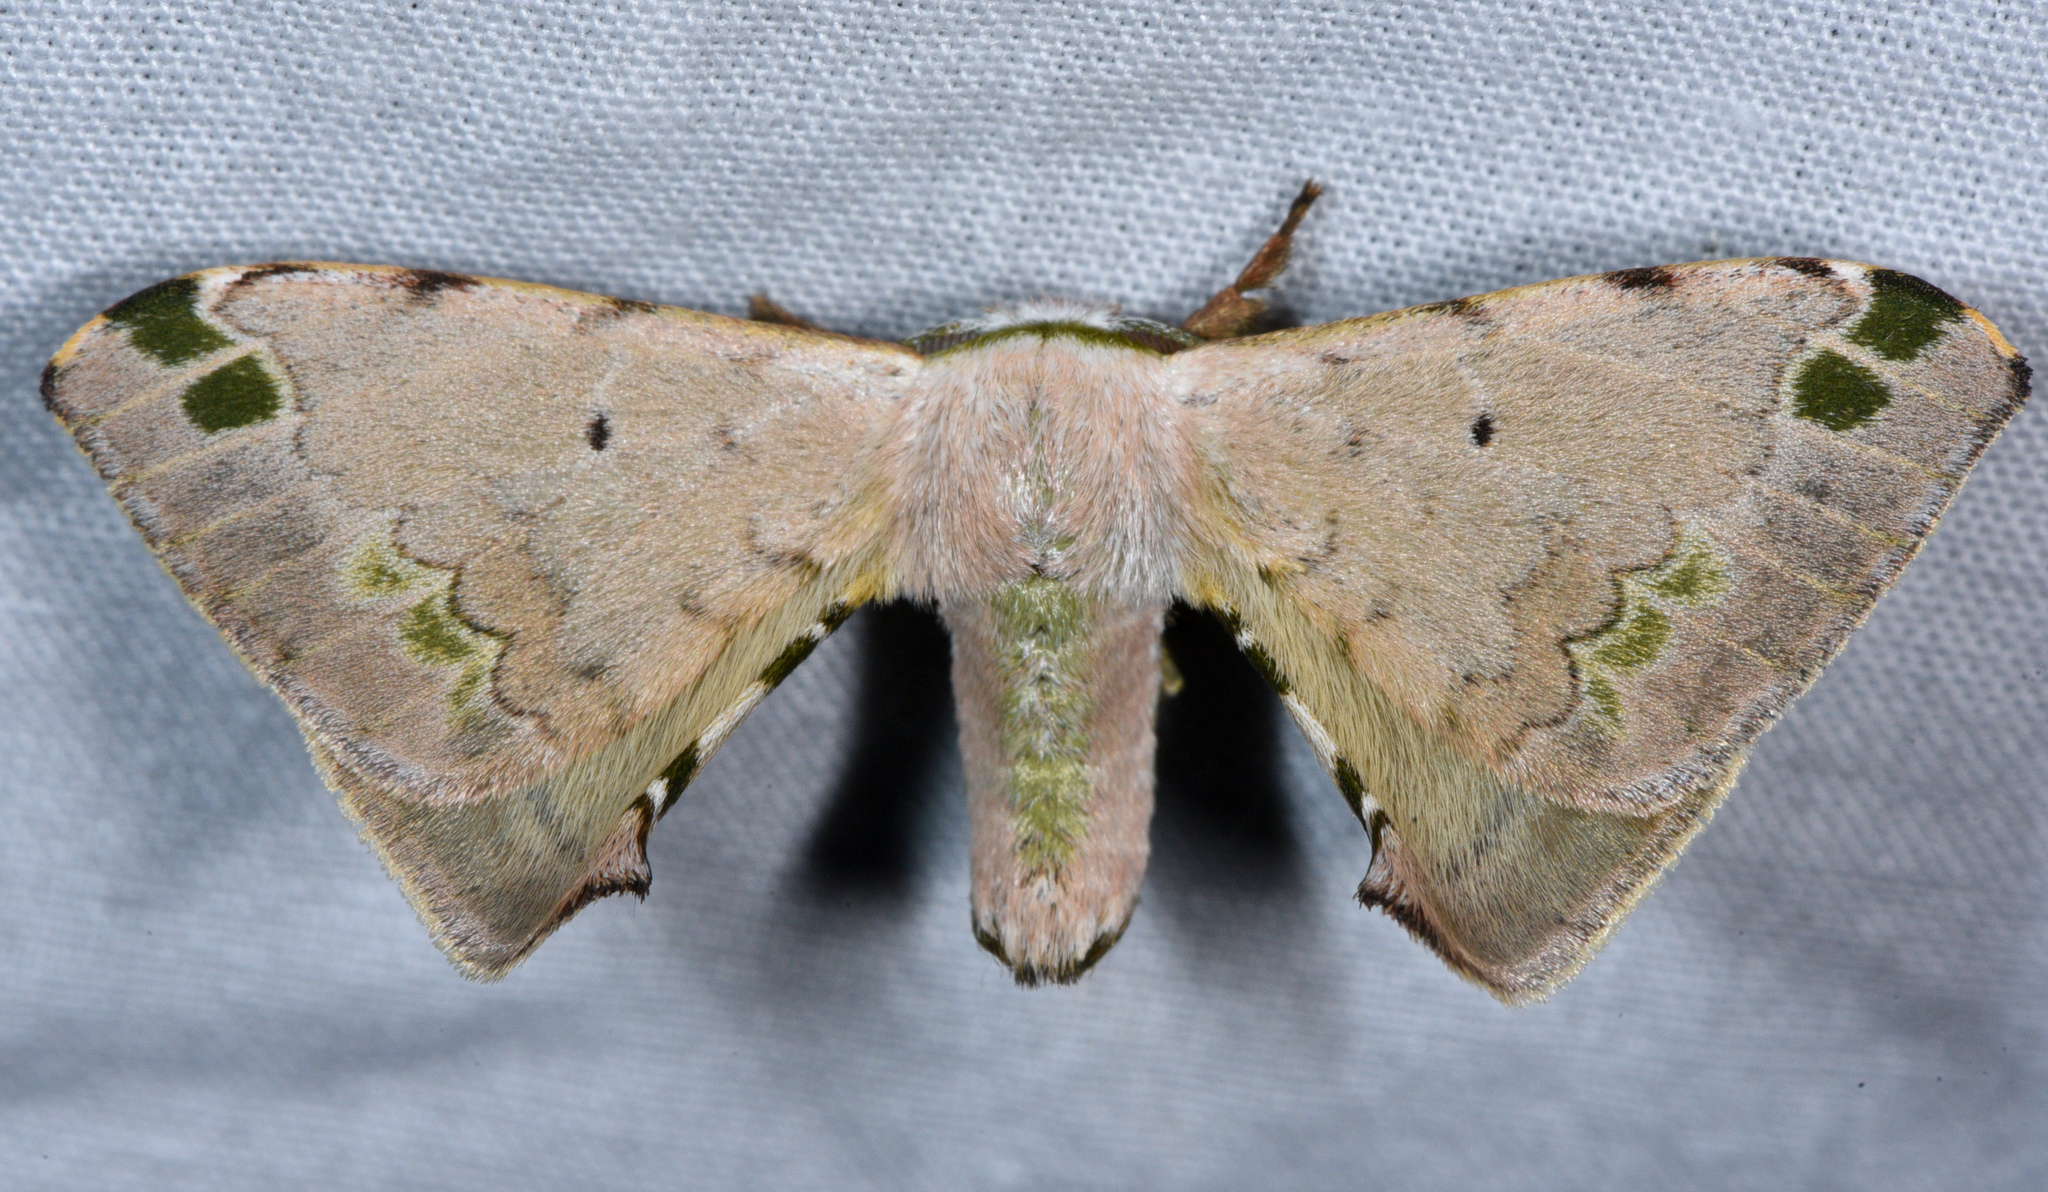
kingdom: Animalia
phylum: Arthropoda
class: Insecta
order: Lepidoptera
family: Bombycidae
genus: Anticla
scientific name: Anticla antica
